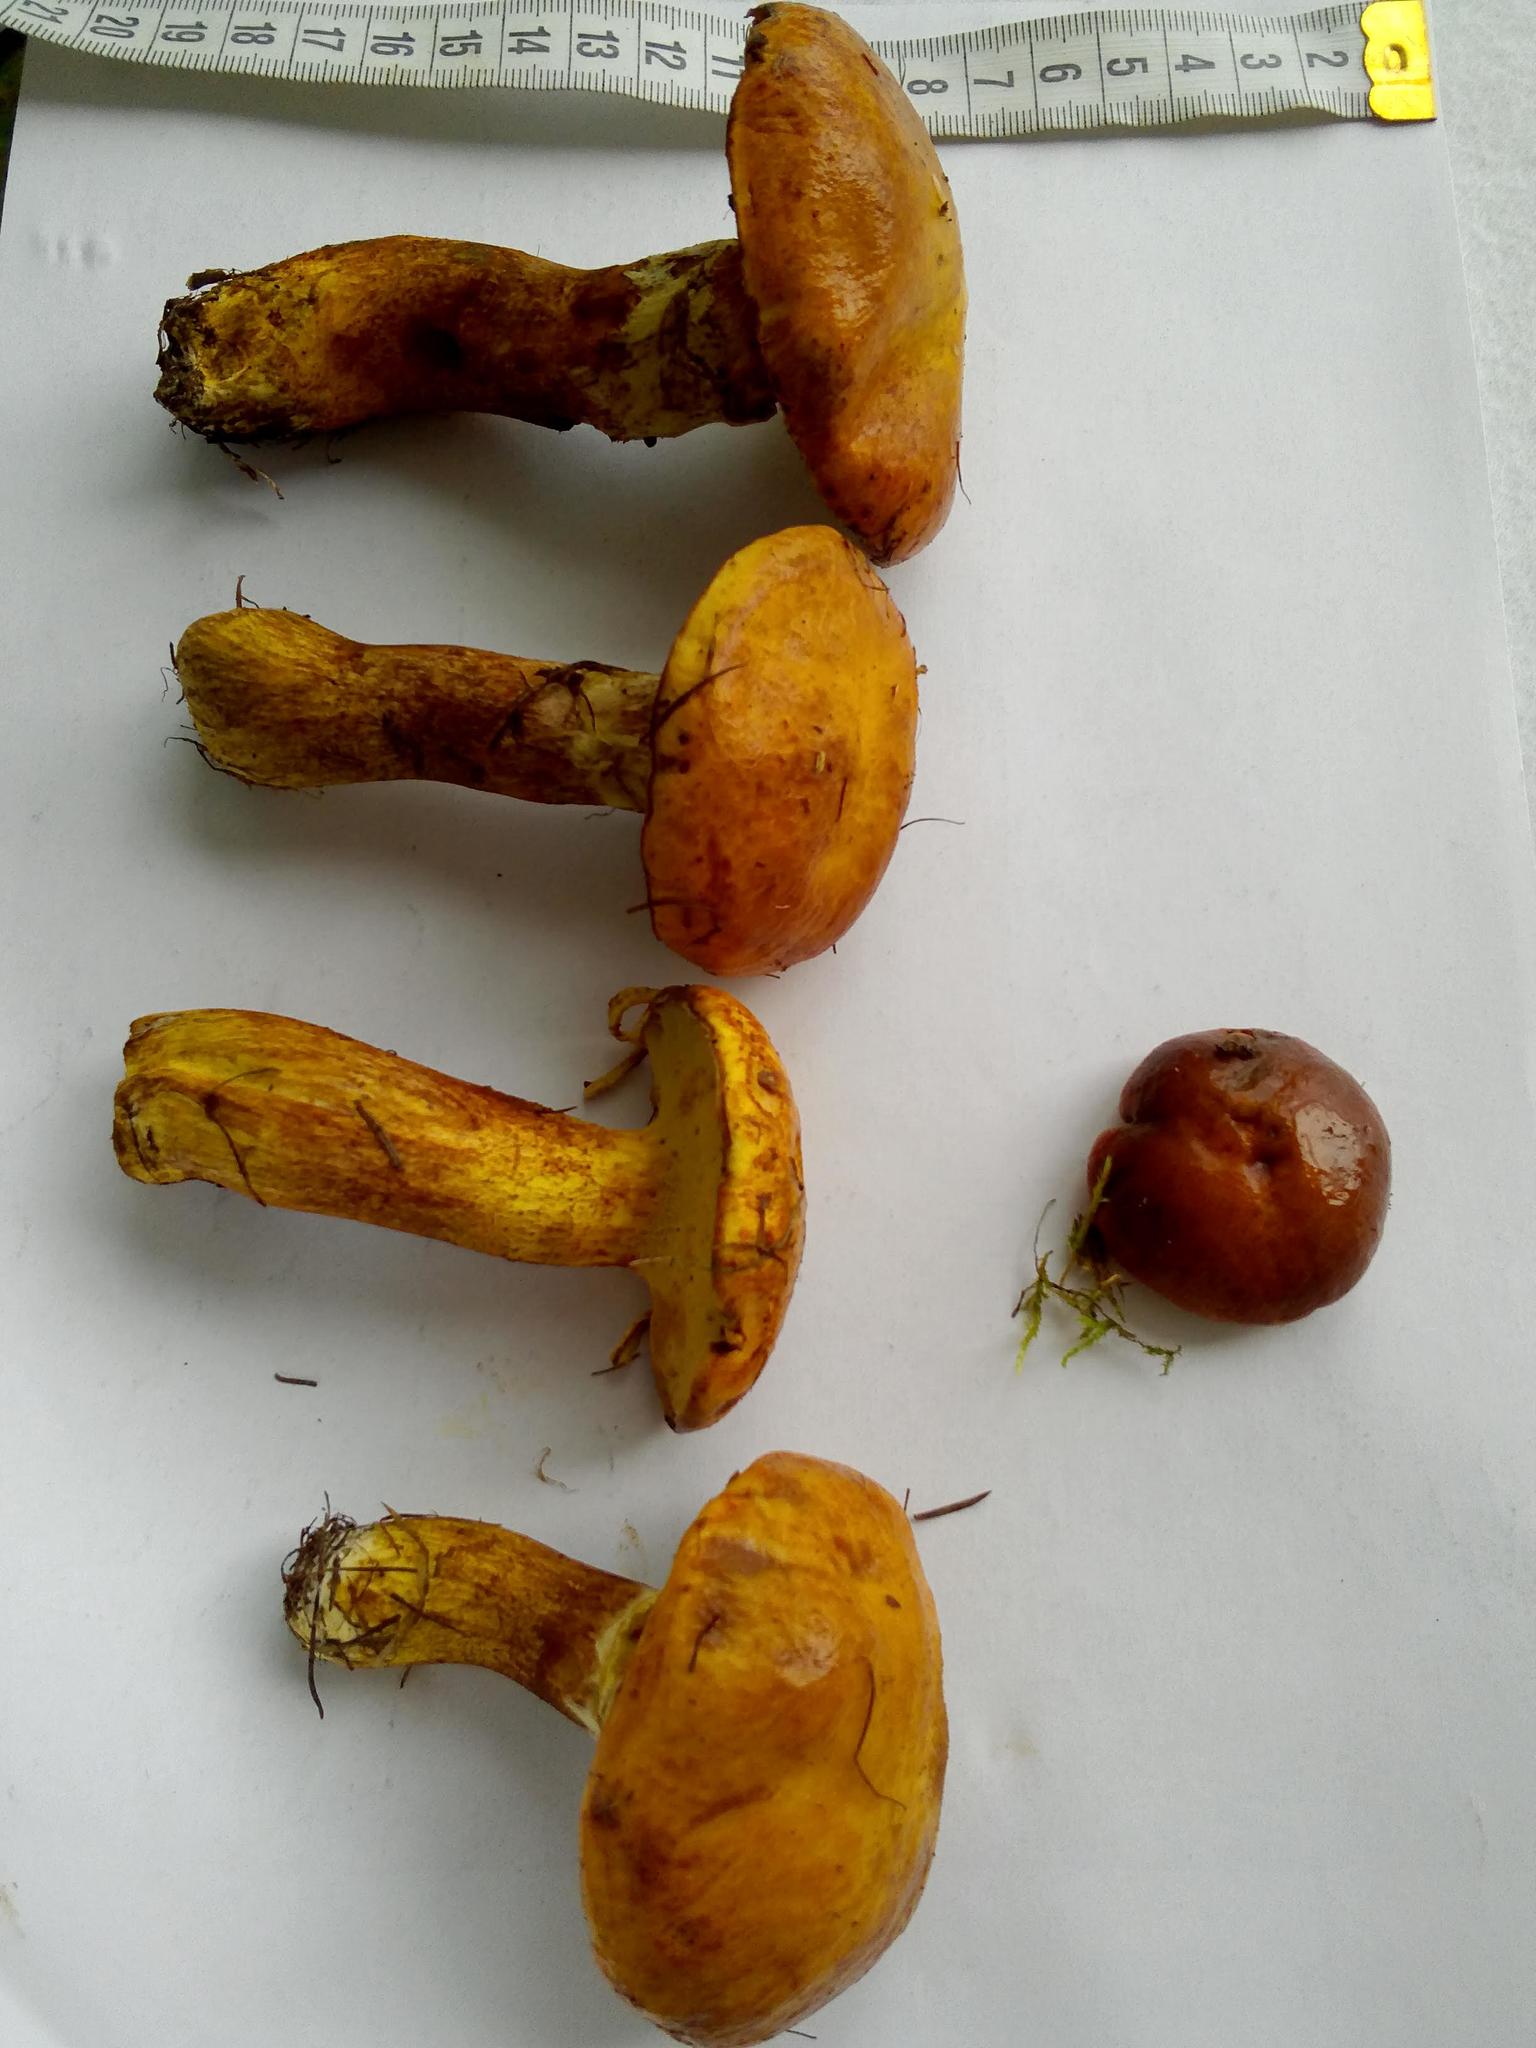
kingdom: Fungi
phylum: Basidiomycota
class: Agaricomycetes
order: Boletales
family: Suillaceae
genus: Suillus
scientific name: Suillus grevillei
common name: Larch bolete
